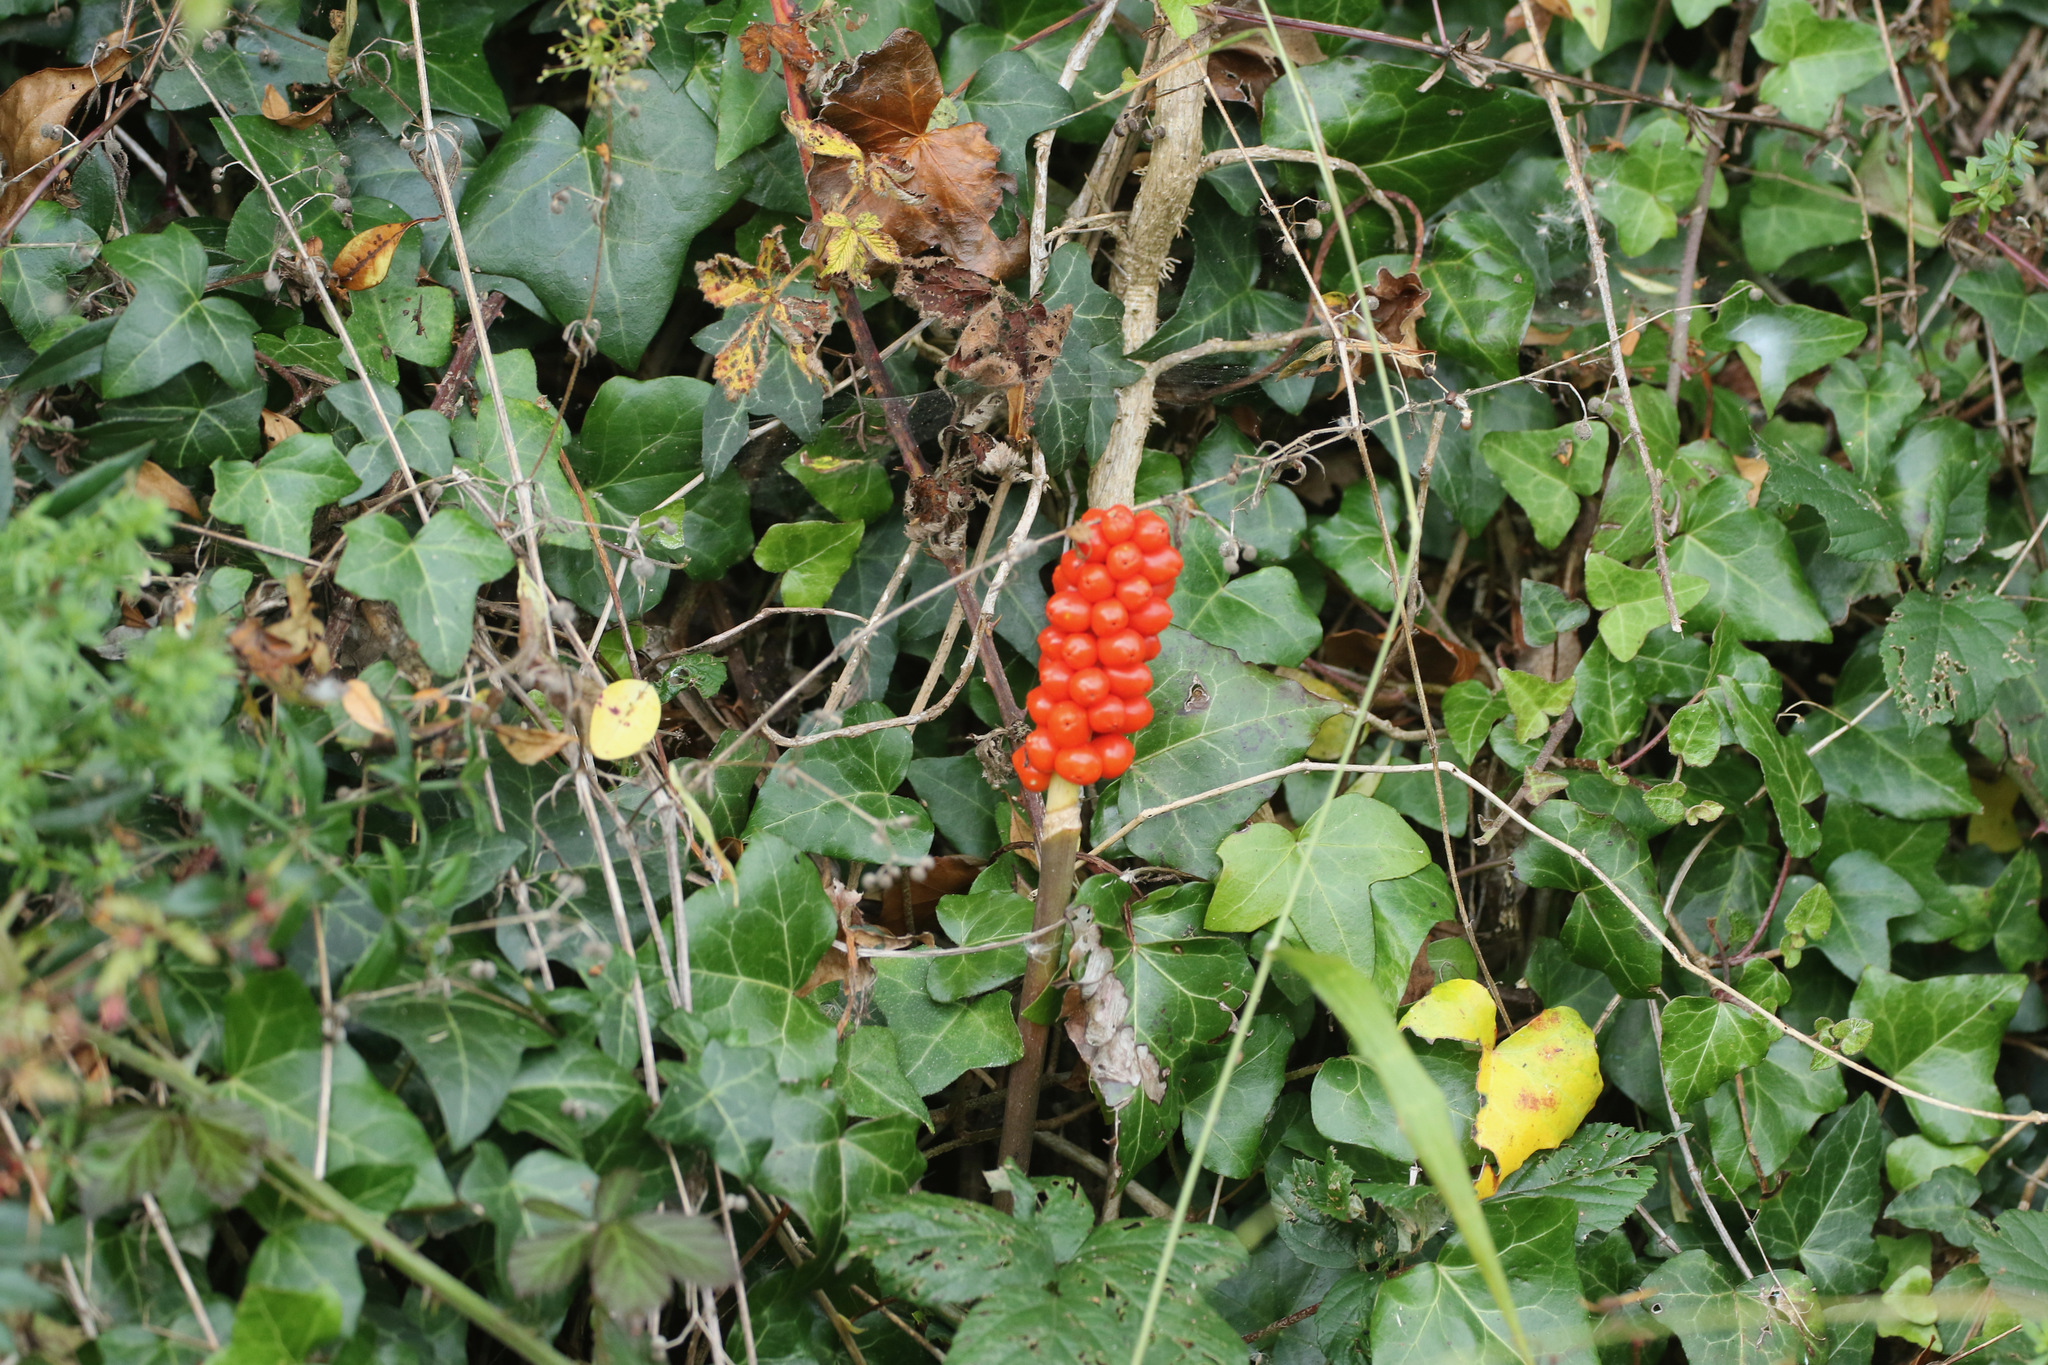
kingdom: Plantae
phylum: Tracheophyta
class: Liliopsida
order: Alismatales
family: Araceae
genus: Arum
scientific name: Arum maculatum
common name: Lords-and-ladies
